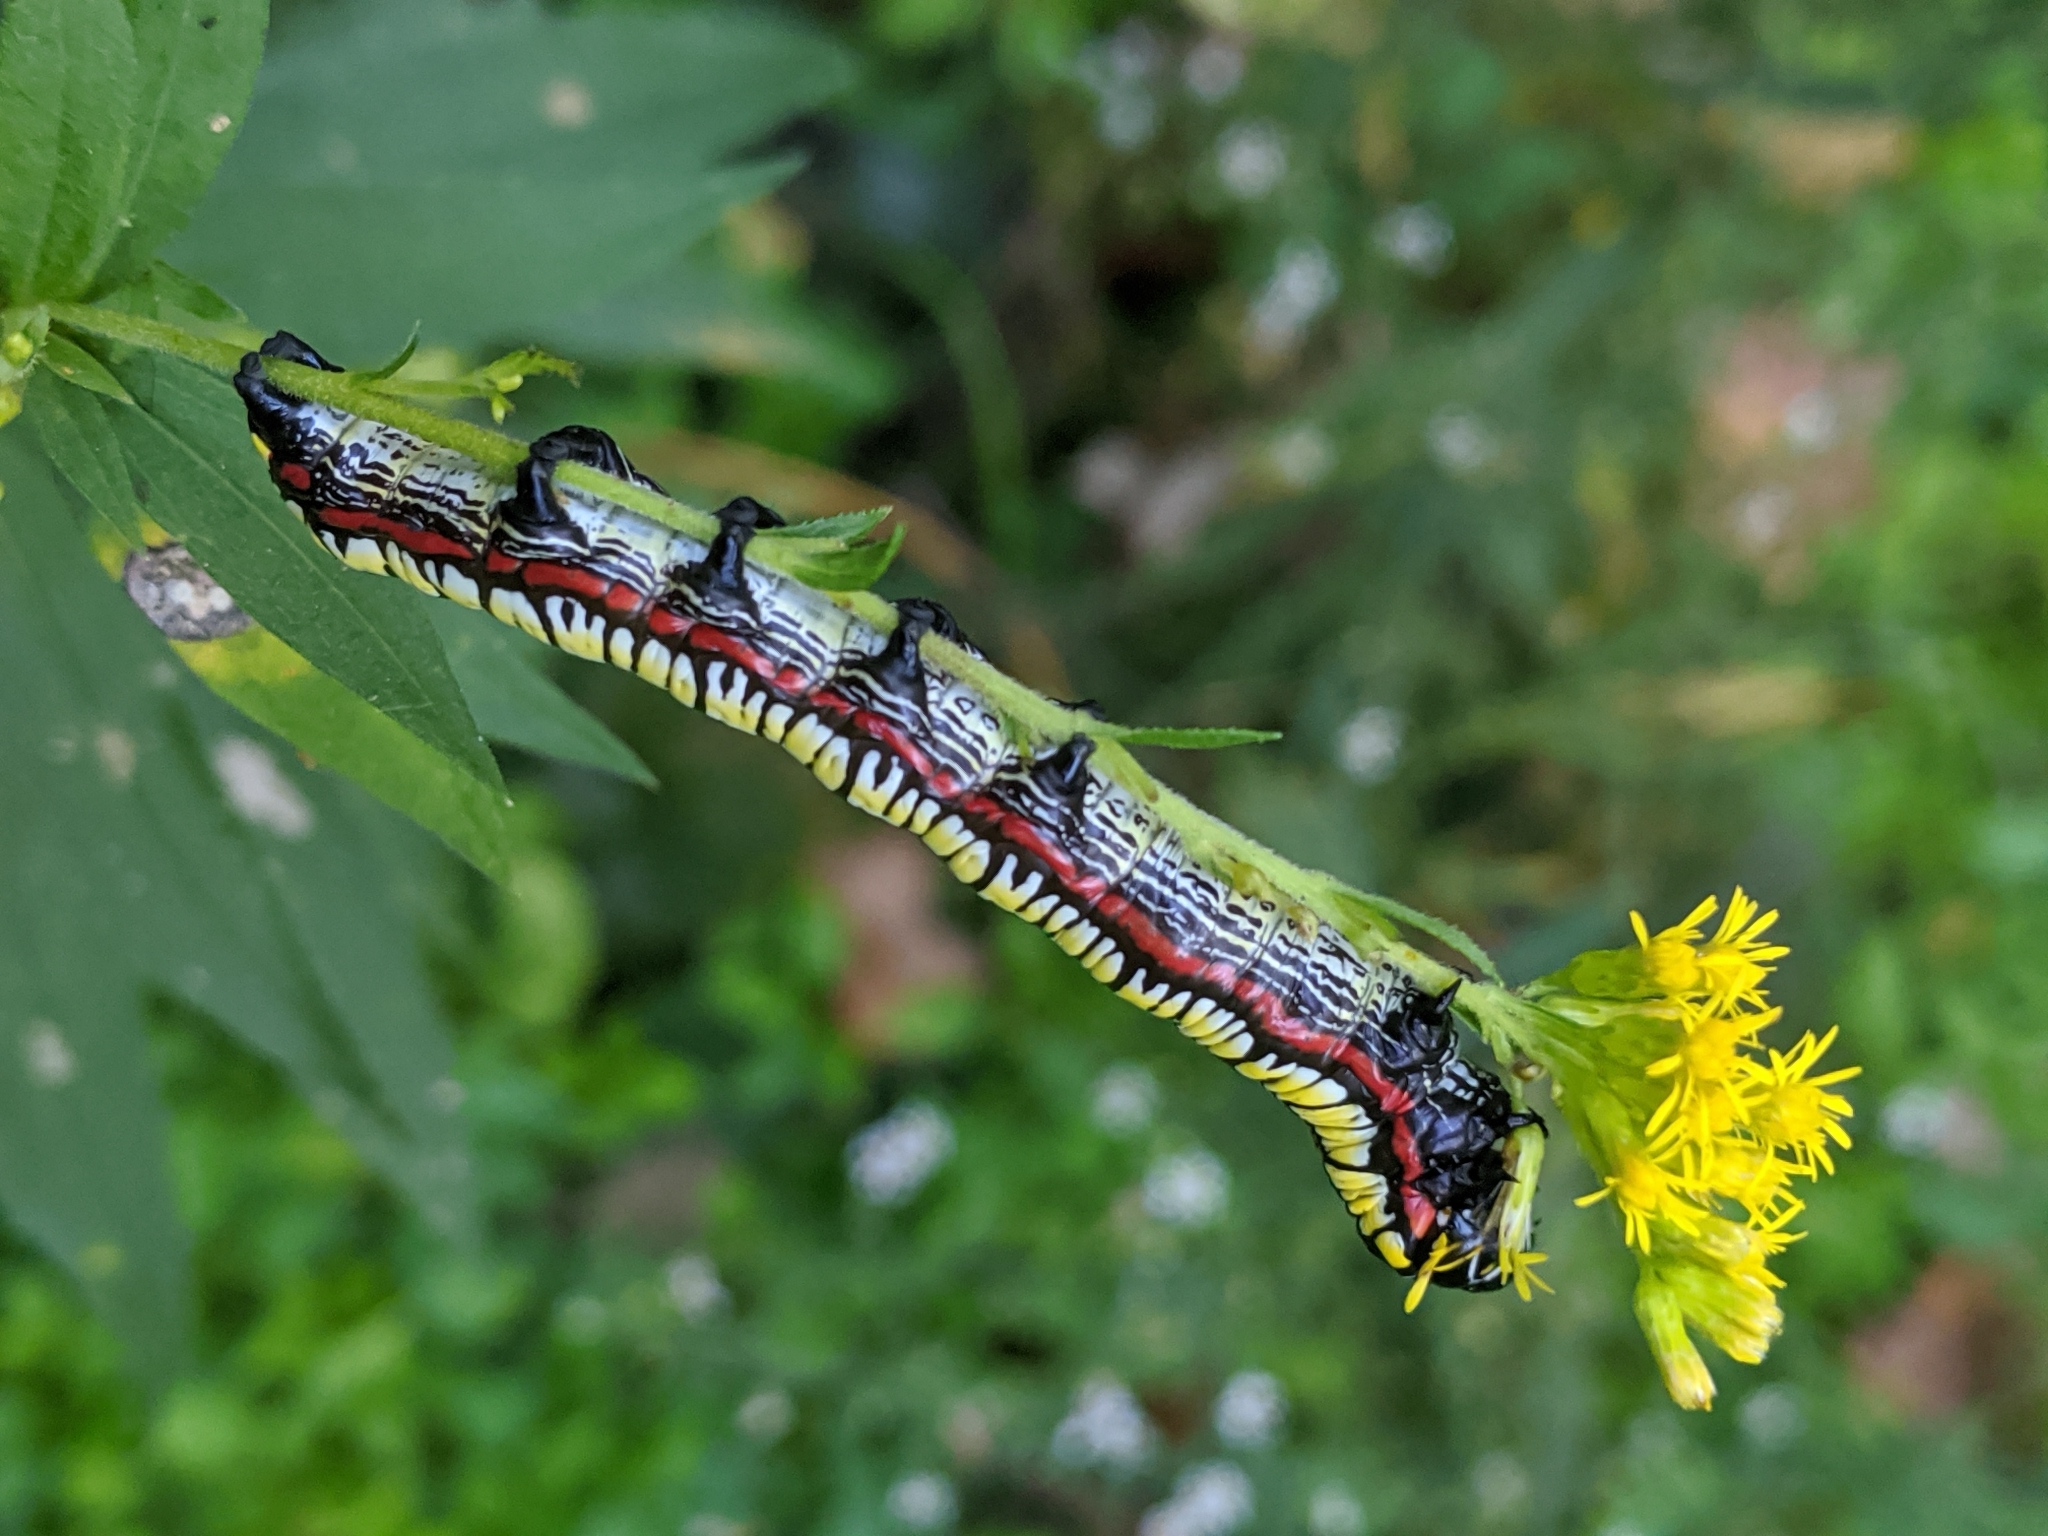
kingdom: Animalia
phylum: Arthropoda
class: Insecta
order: Lepidoptera
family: Noctuidae
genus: Cucullia
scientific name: Cucullia convexipennis
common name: Brown-hooded owlet
